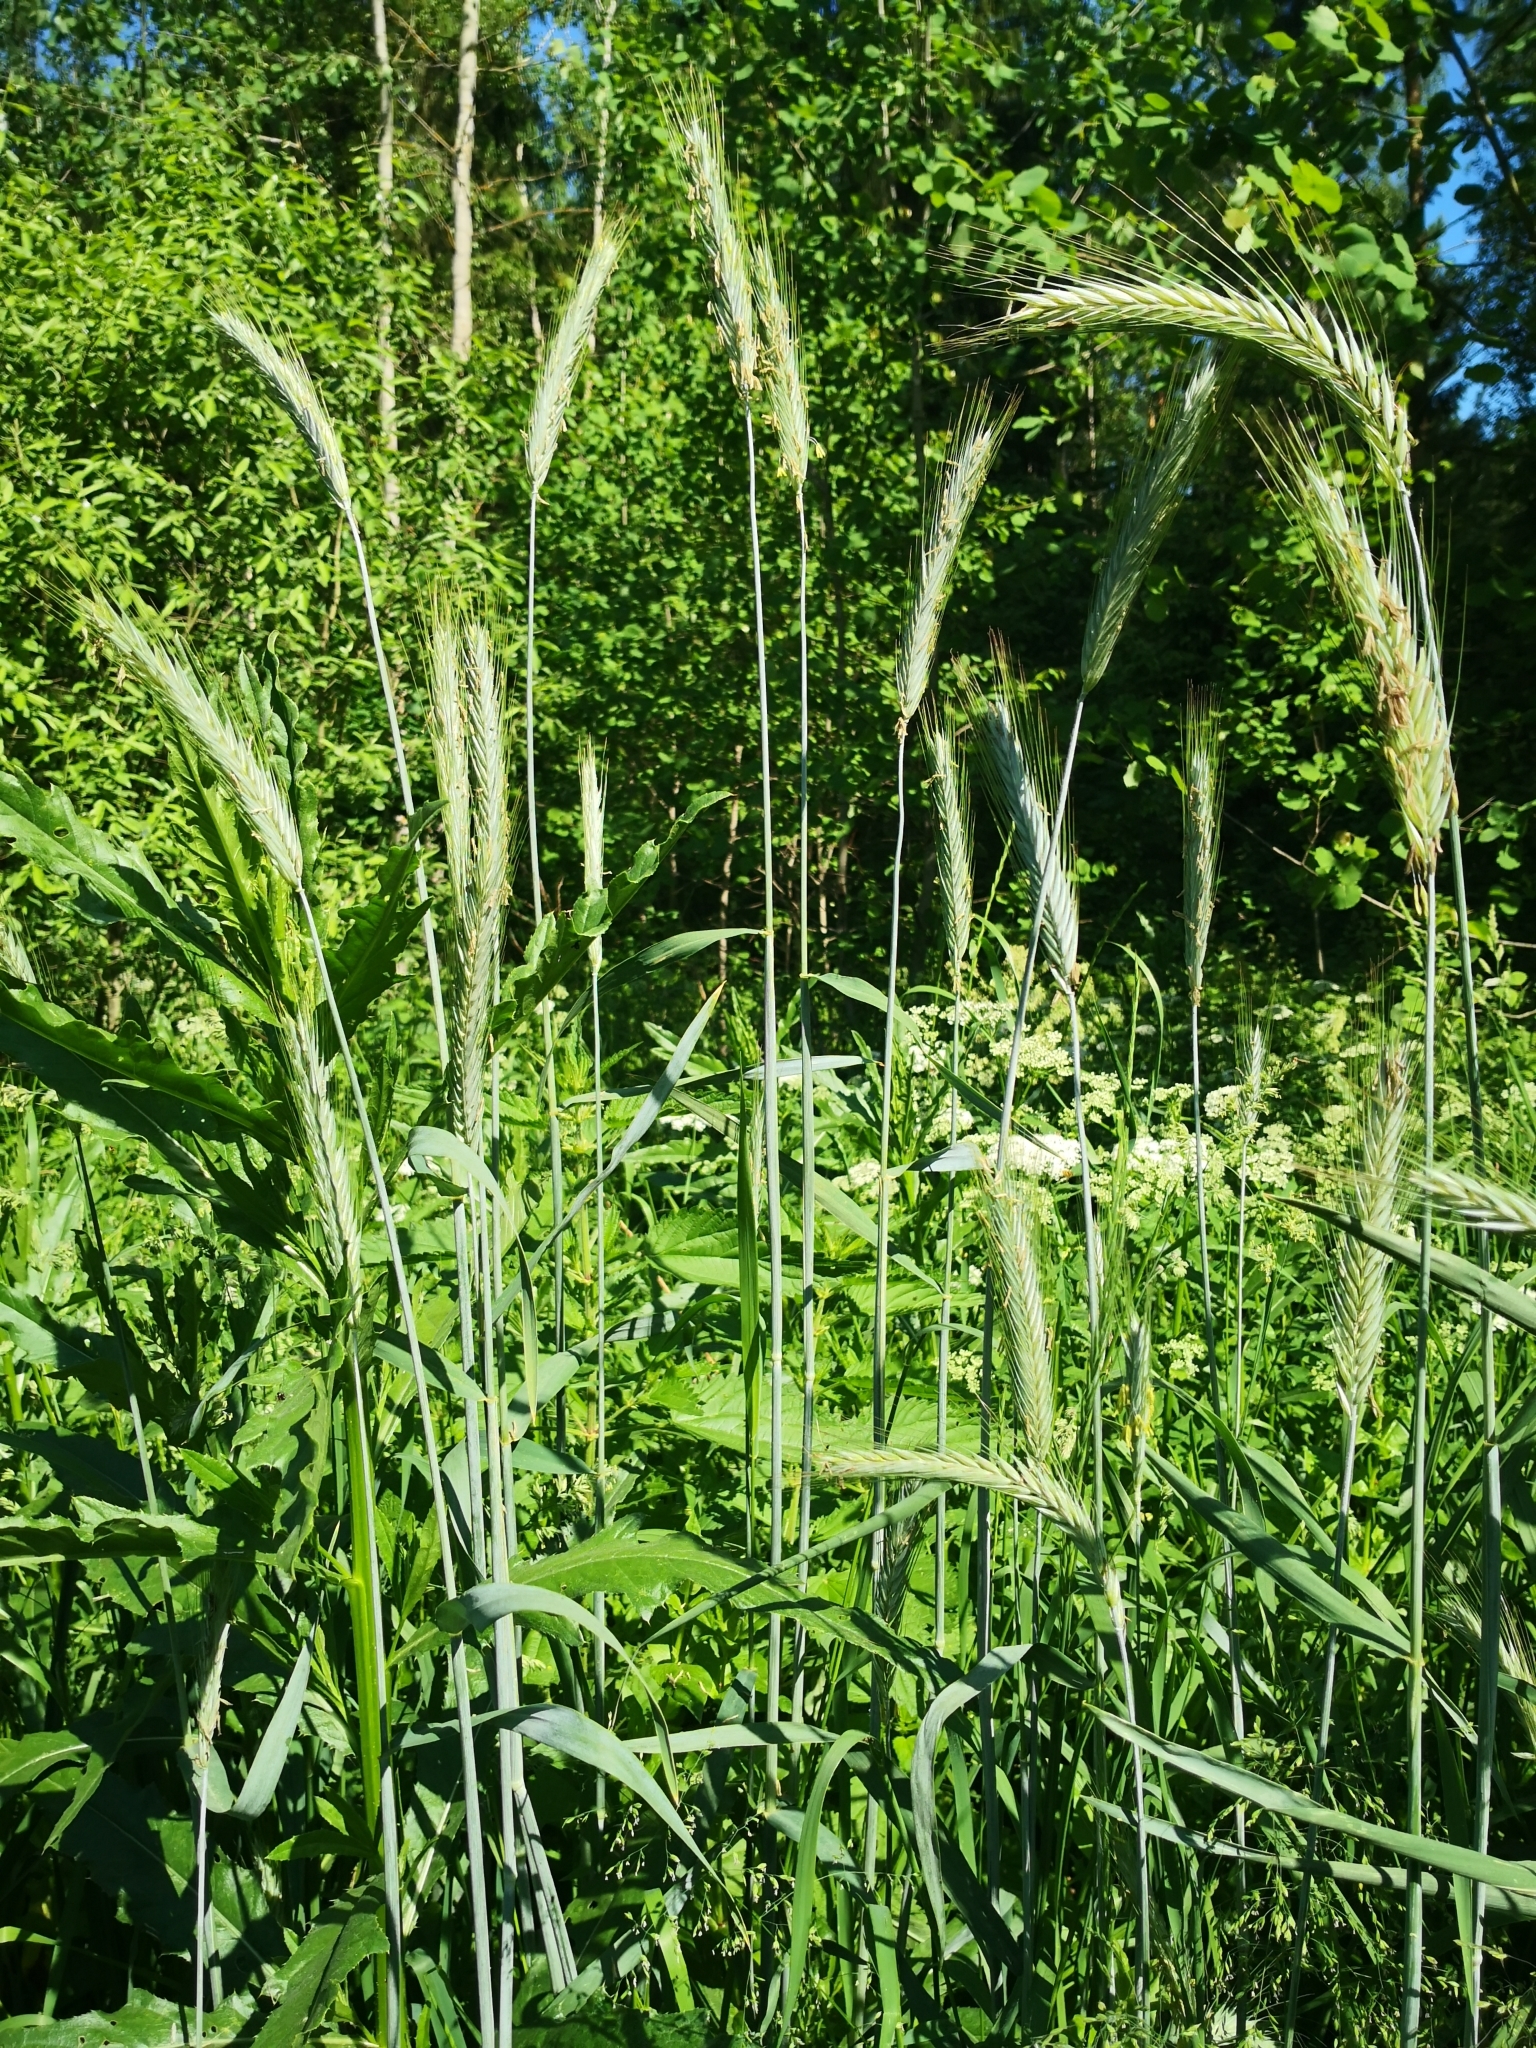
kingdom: Plantae
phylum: Tracheophyta
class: Liliopsida
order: Poales
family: Poaceae
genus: Secale
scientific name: Secale cereale
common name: Rye
